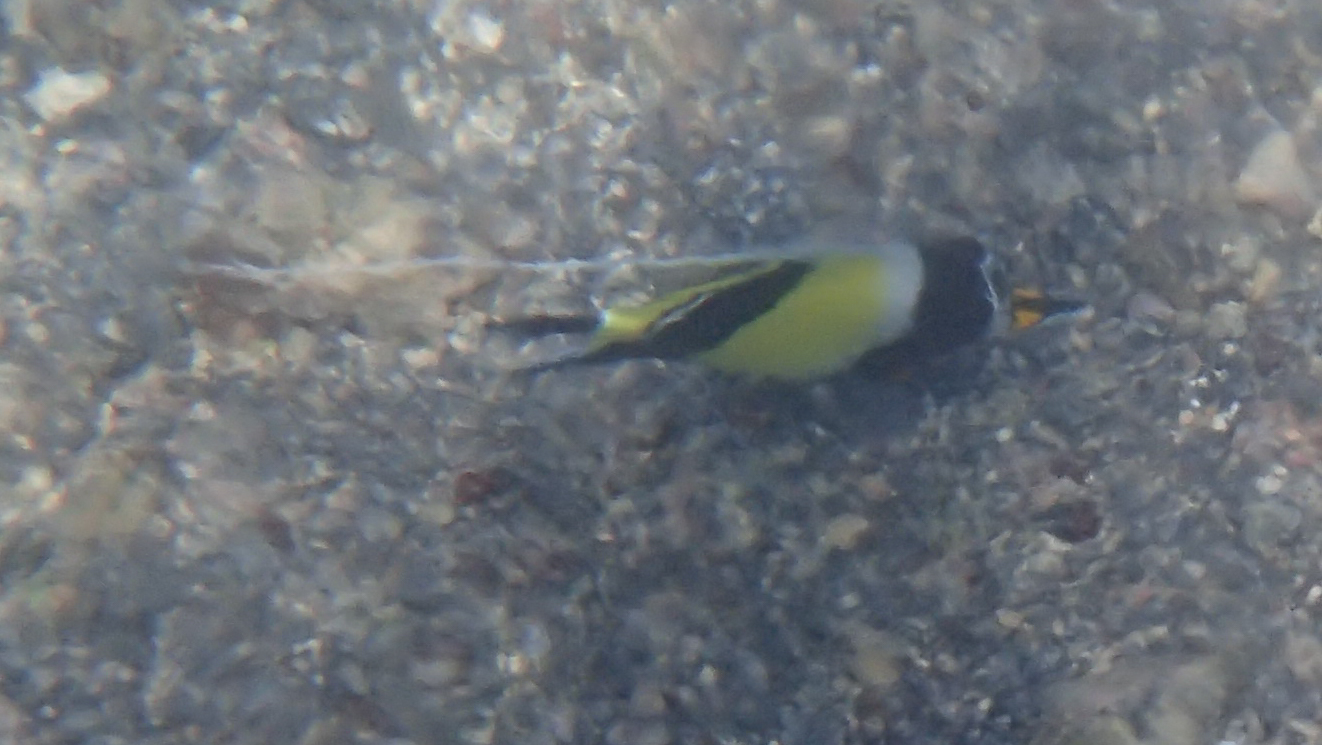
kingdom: Animalia
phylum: Chordata
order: Perciformes
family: Zanclidae
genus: Zanclus
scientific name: Zanclus cornutus
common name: Moorish idol
